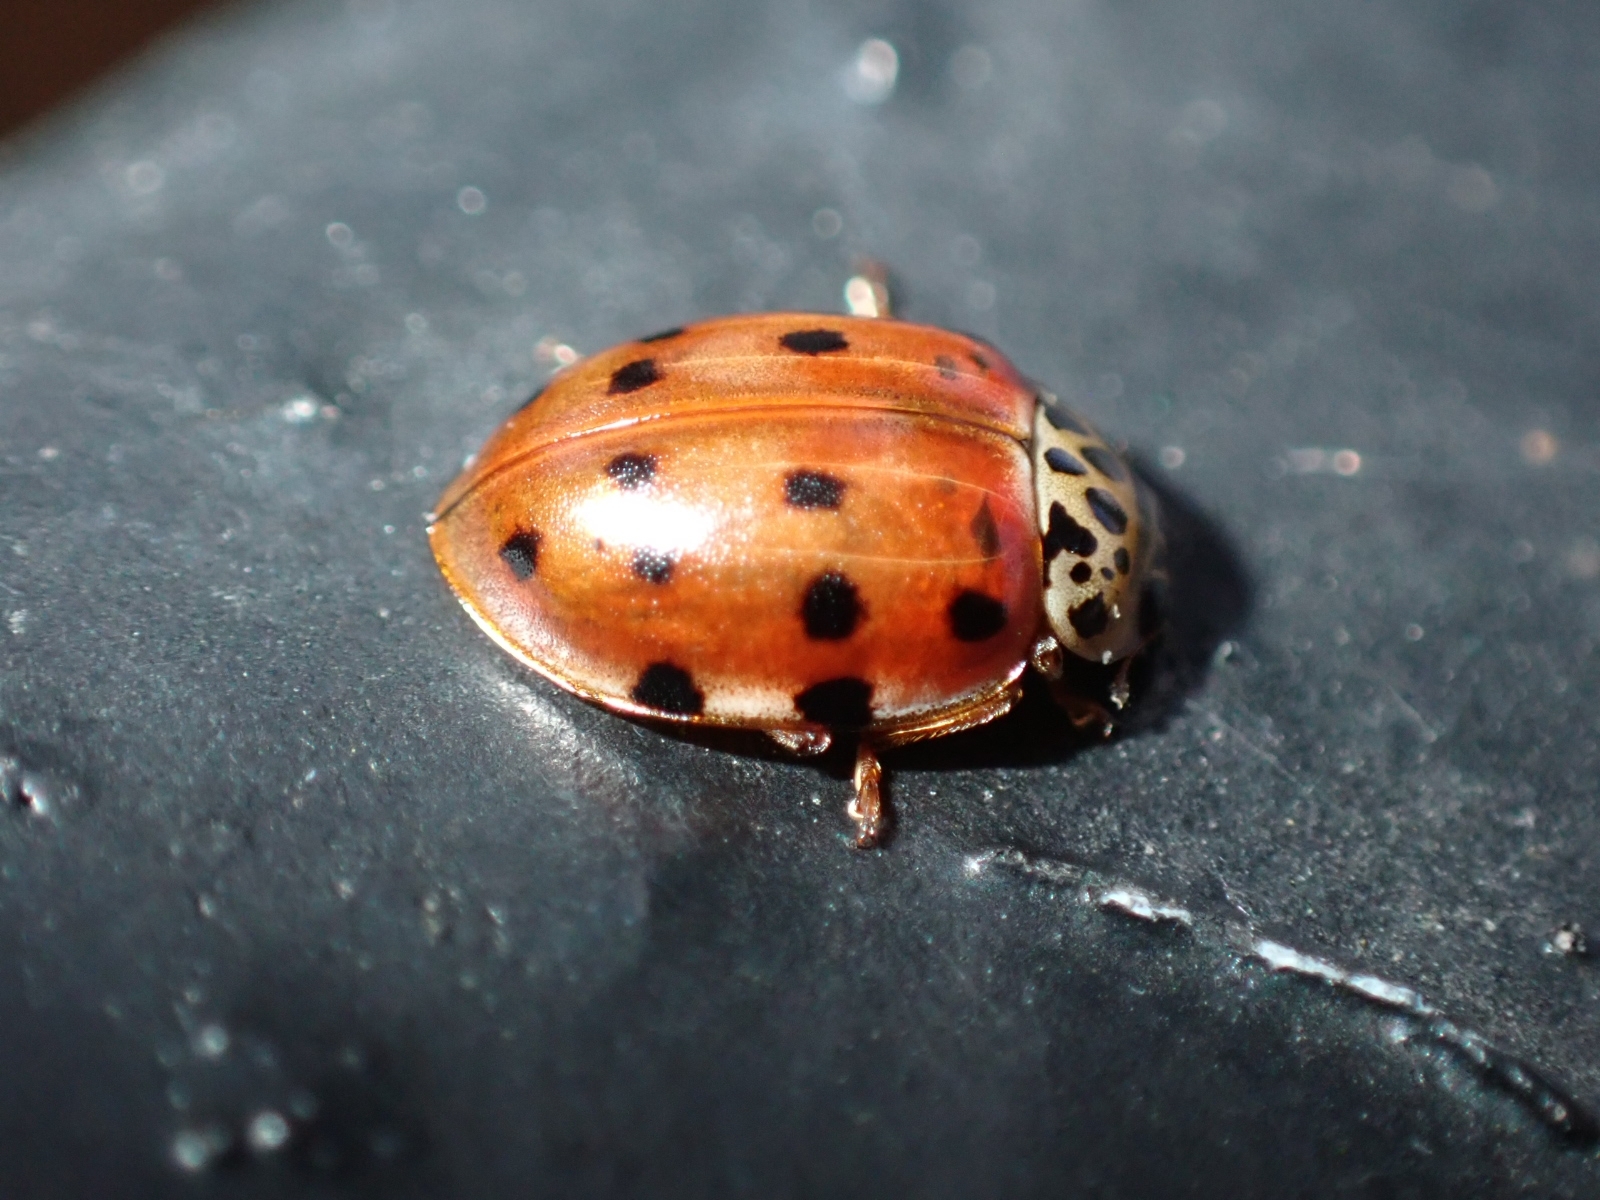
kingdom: Animalia
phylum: Arthropoda
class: Insecta
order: Coleoptera
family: Coccinellidae
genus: Harmonia
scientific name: Harmonia quadripunctata
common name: Cream-streaked ladybird
